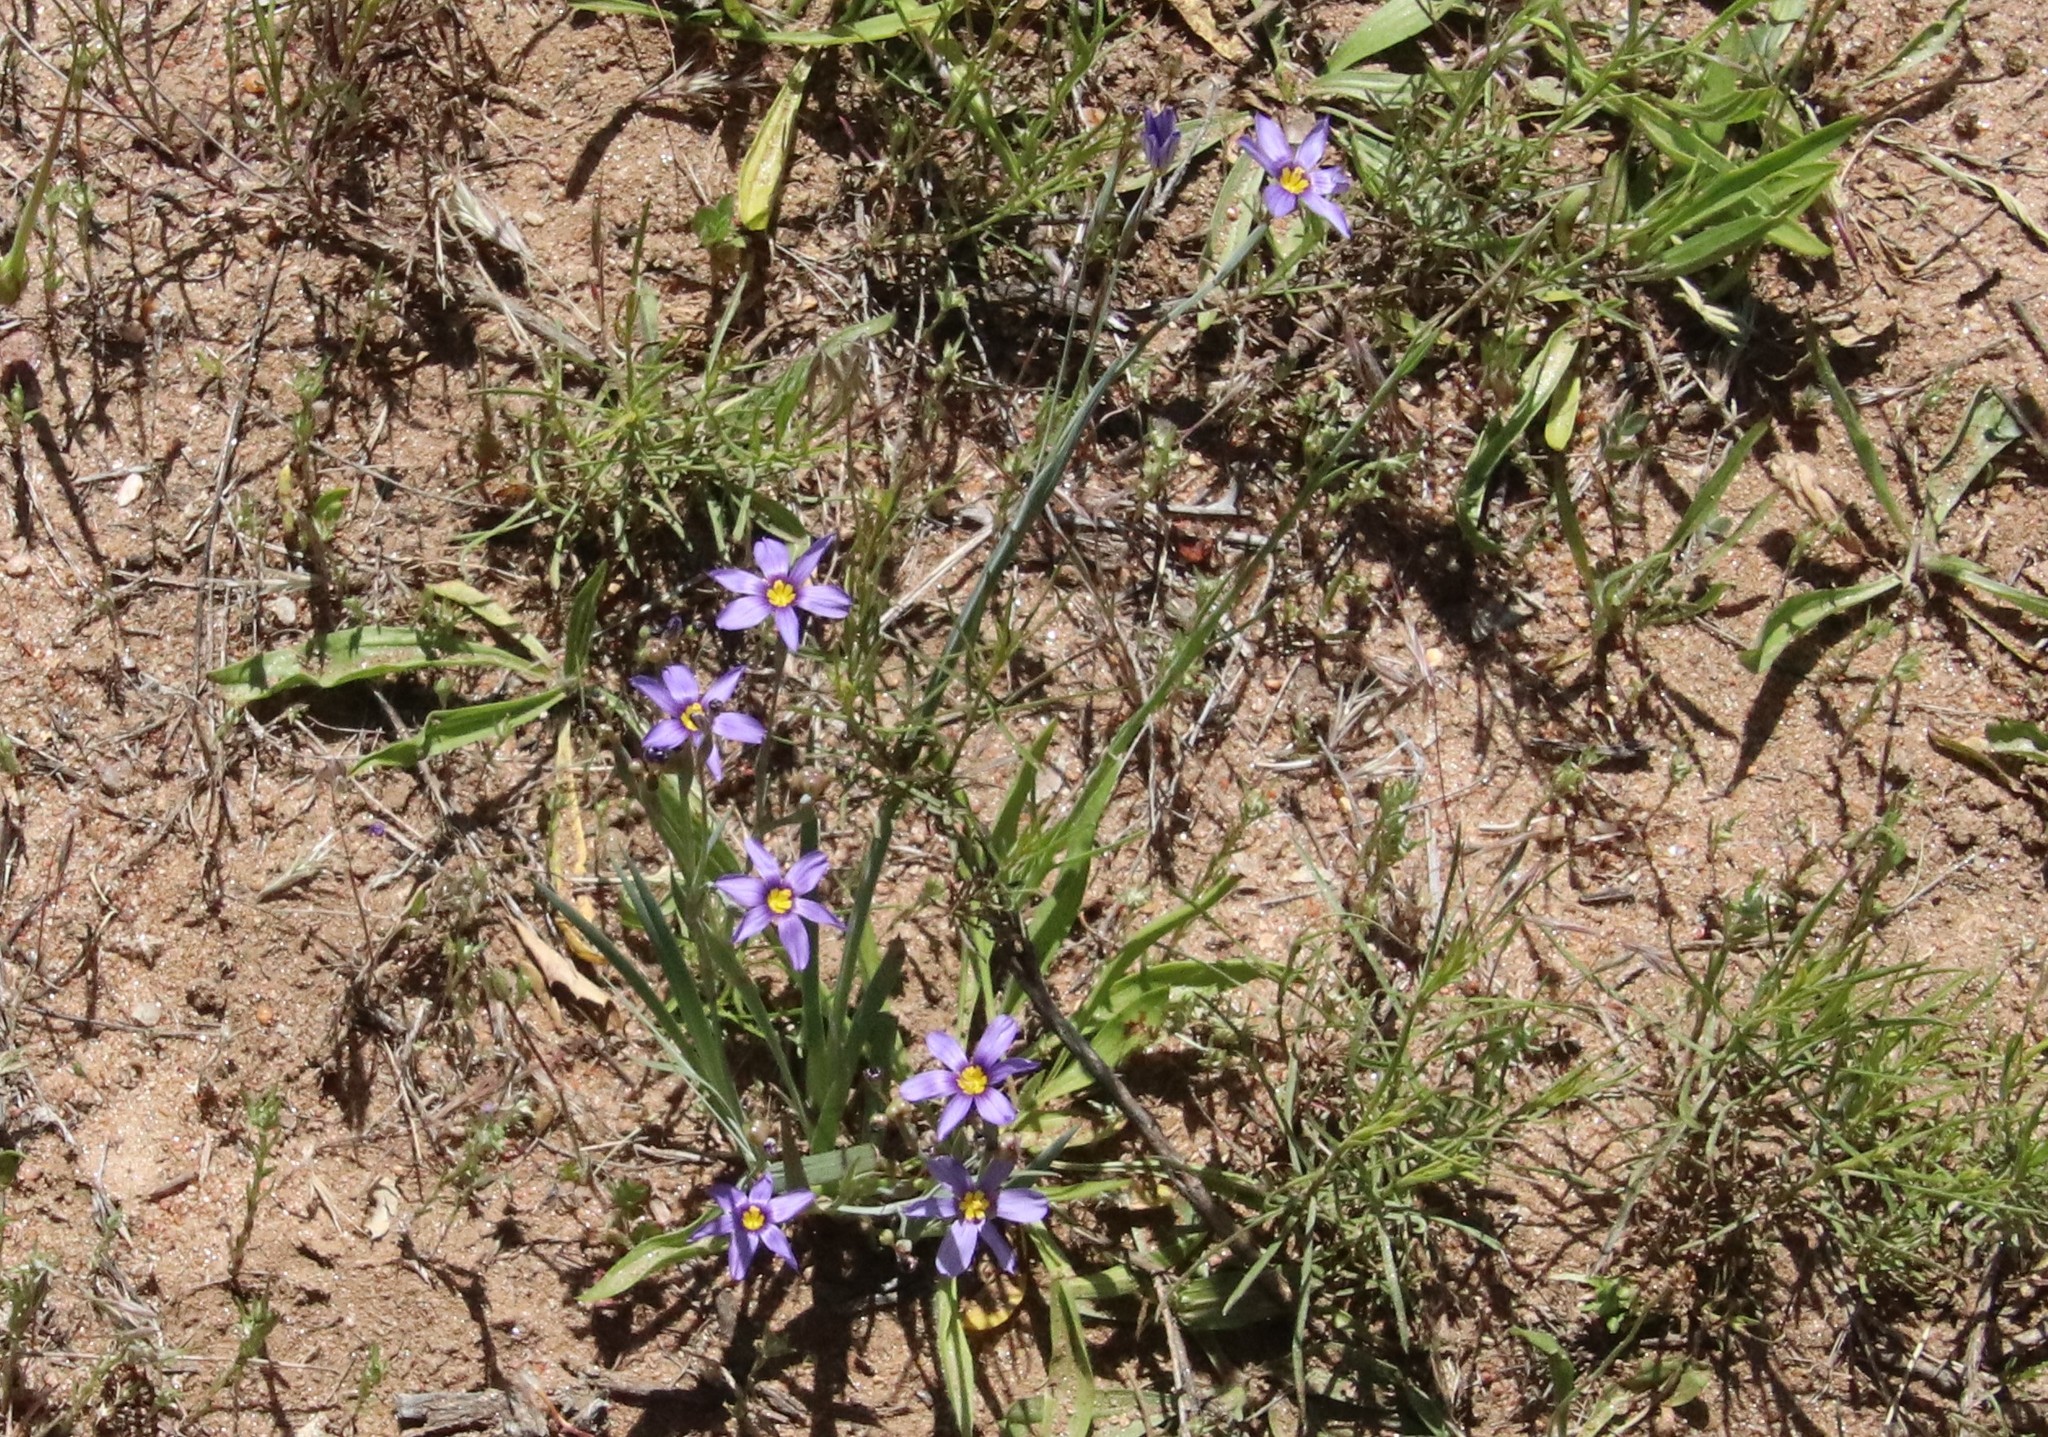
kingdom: Plantae
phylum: Tracheophyta
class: Liliopsida
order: Asparagales
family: Iridaceae
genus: Sisyrinchium
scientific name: Sisyrinchium bellum
